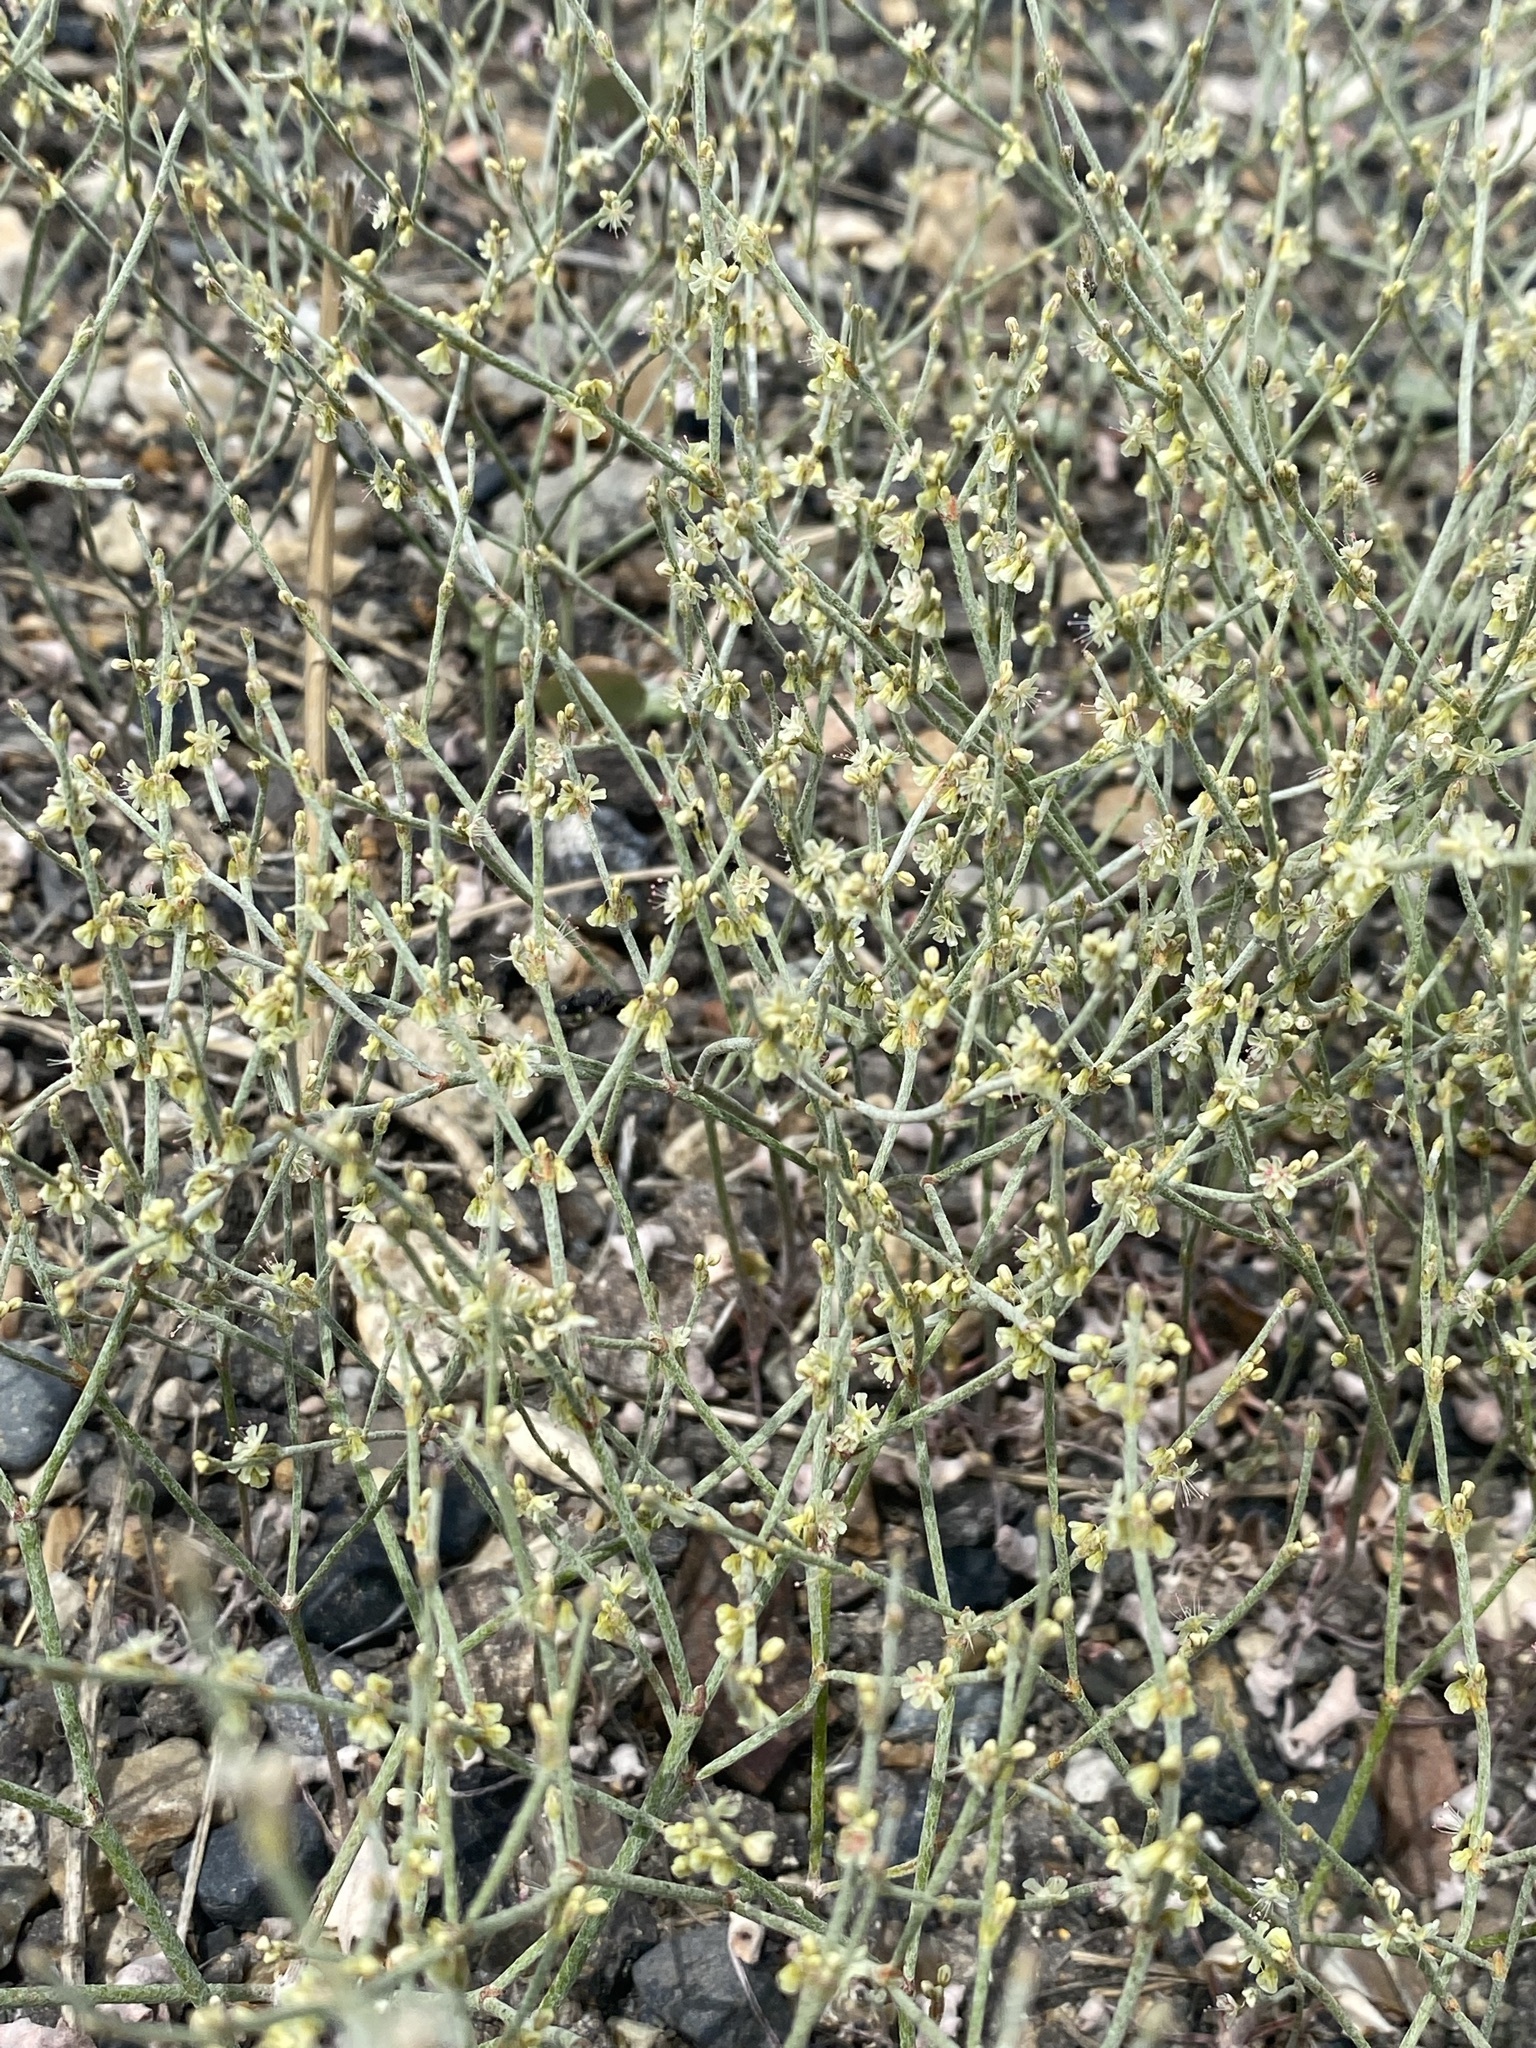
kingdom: Plantae
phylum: Tracheophyta
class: Magnoliopsida
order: Caryophyllales
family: Polygonaceae
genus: Eriogonum
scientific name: Eriogonum palmerianum
